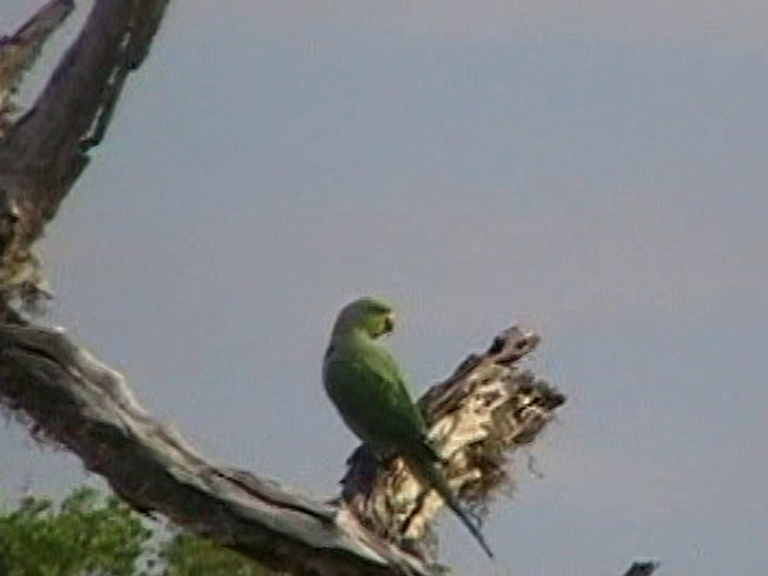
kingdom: Animalia
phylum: Chordata
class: Aves
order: Psittaciformes
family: Psittacidae
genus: Psittacula
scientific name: Psittacula krameri
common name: Rose-ringed parakeet
